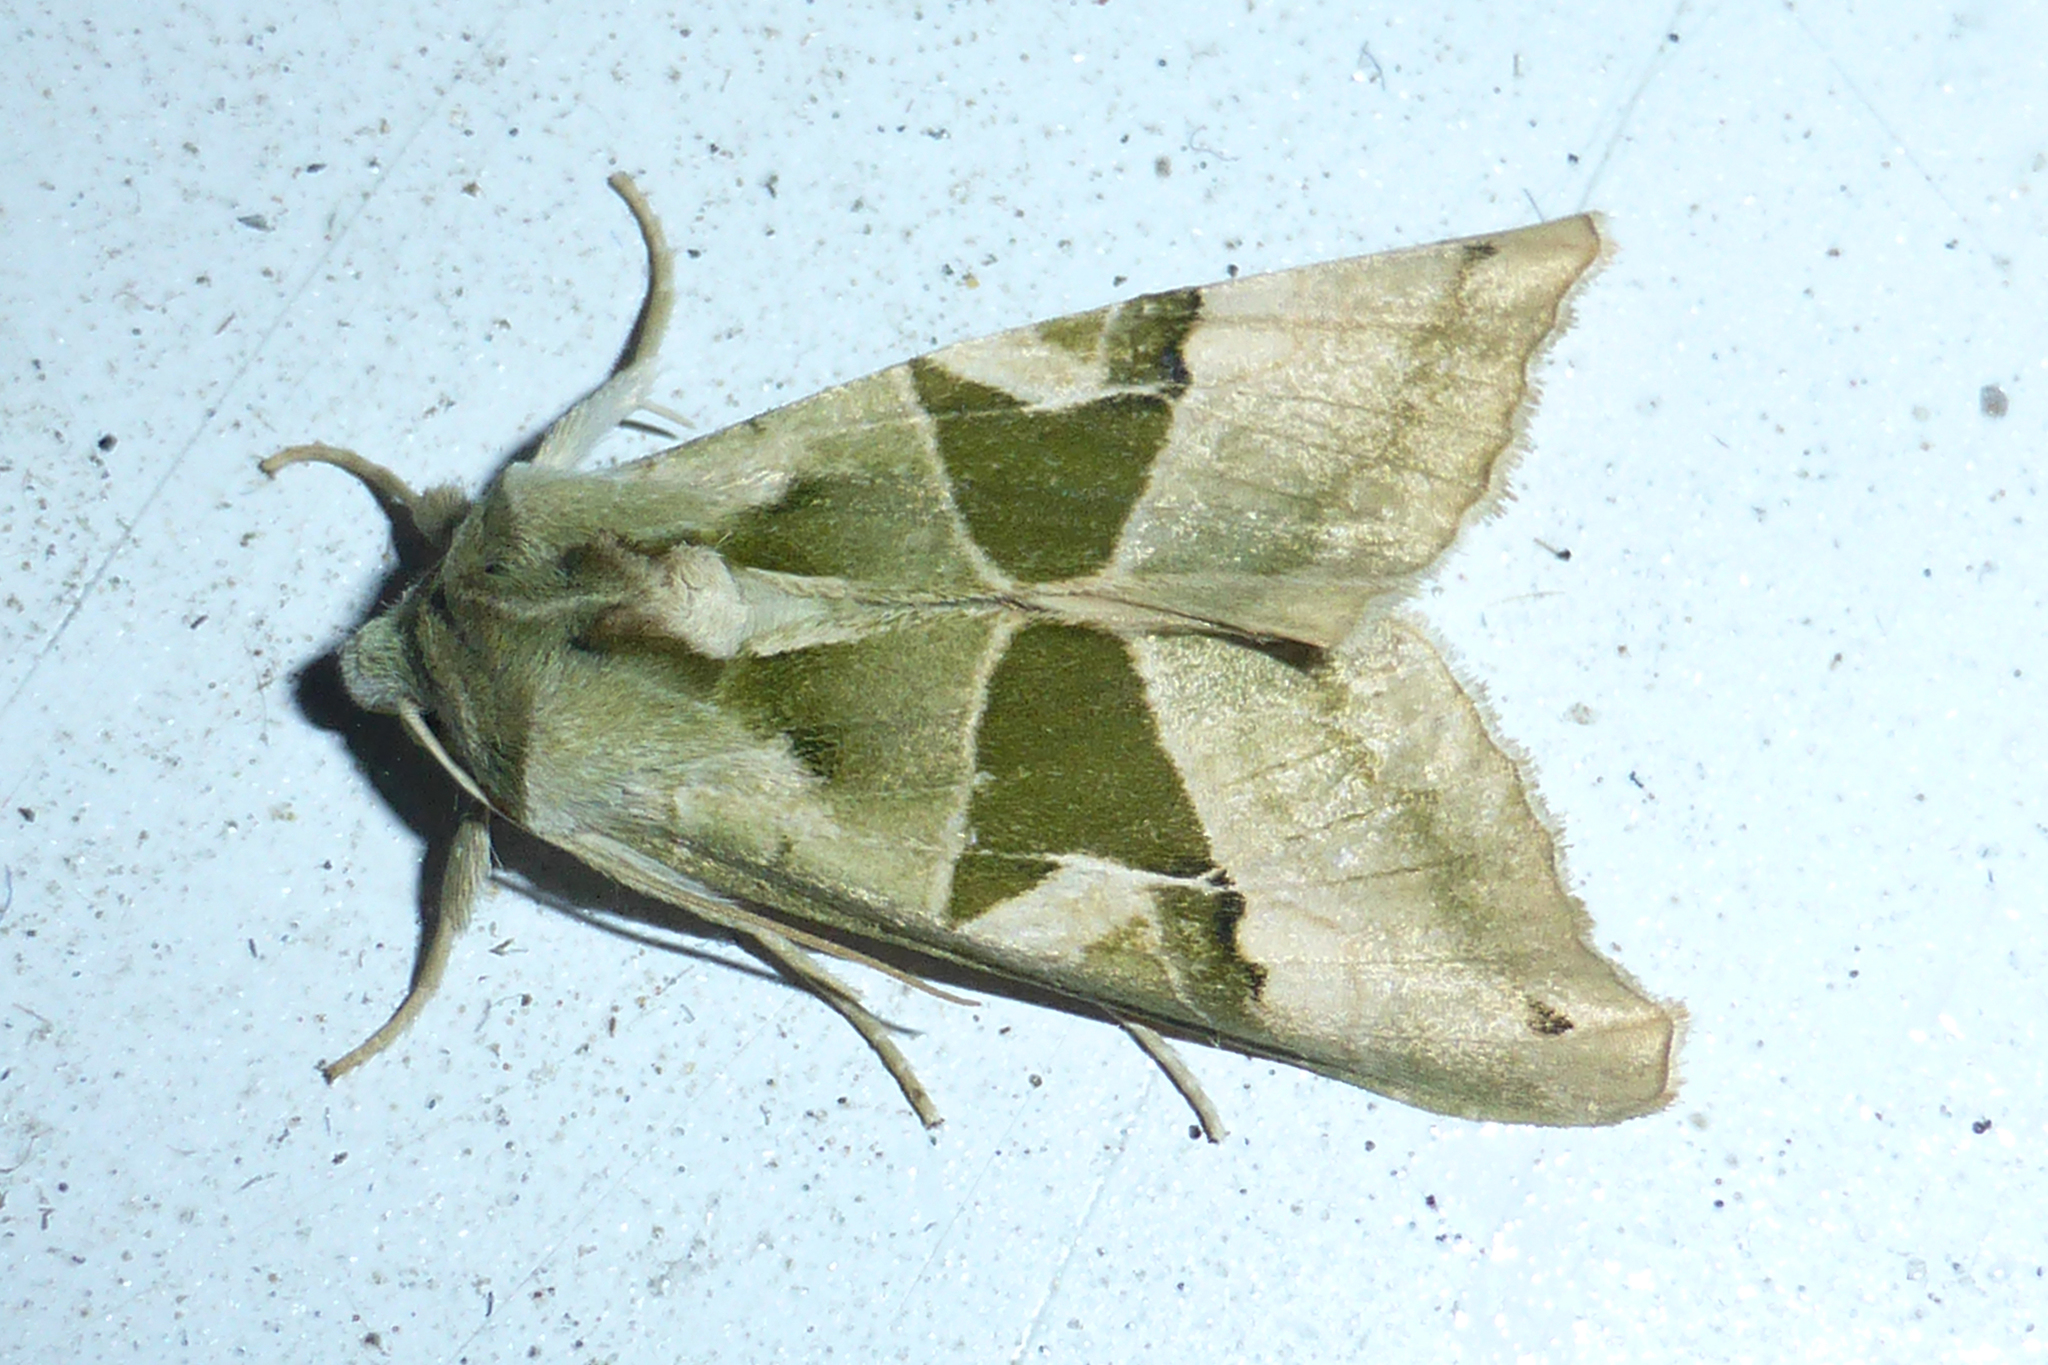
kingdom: Animalia
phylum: Arthropoda
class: Insecta
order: Lepidoptera
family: Noctuidae
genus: Phlogophora
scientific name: Phlogophora scita
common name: Green angle shades
